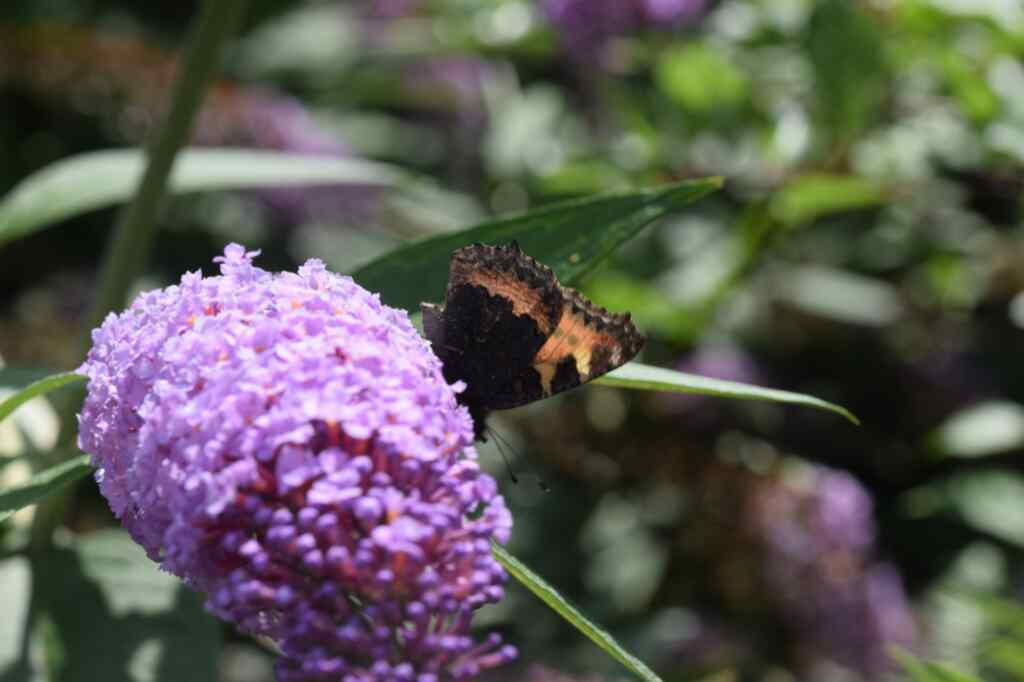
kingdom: Animalia
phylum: Arthropoda
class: Insecta
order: Lepidoptera
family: Nymphalidae
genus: Aglais
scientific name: Aglais urticae
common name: Small tortoiseshell
